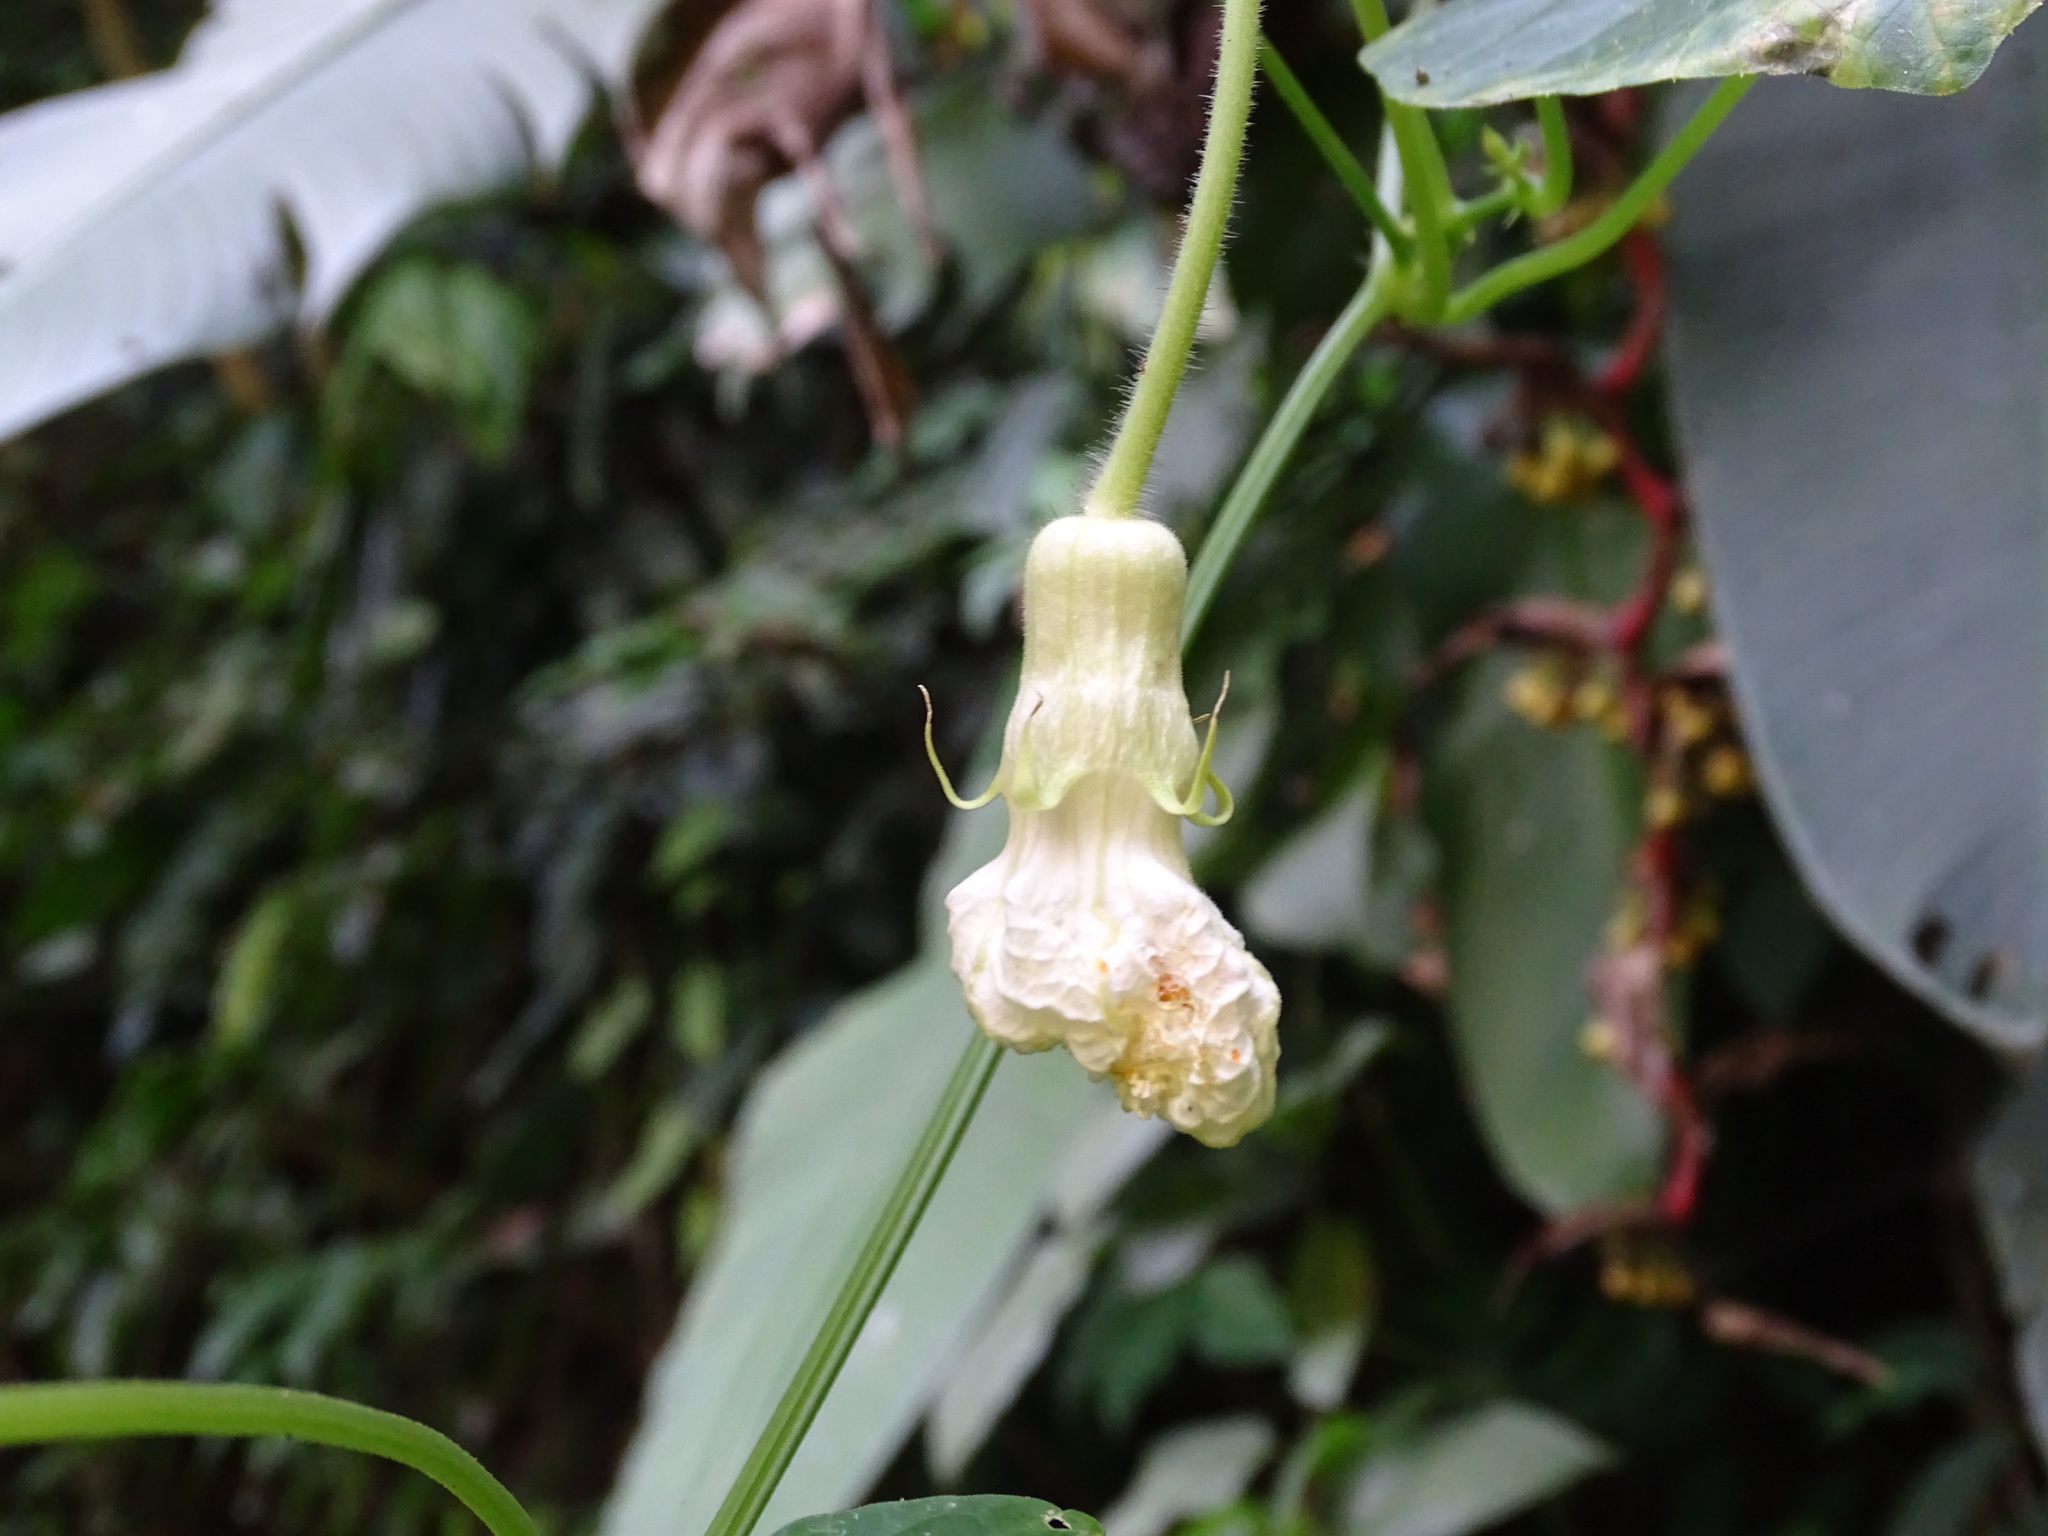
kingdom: Plantae
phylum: Tracheophyta
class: Magnoliopsida
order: Cucurbitales
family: Cucurbitaceae
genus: Polyclathra
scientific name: Polyclathra cucumerina
